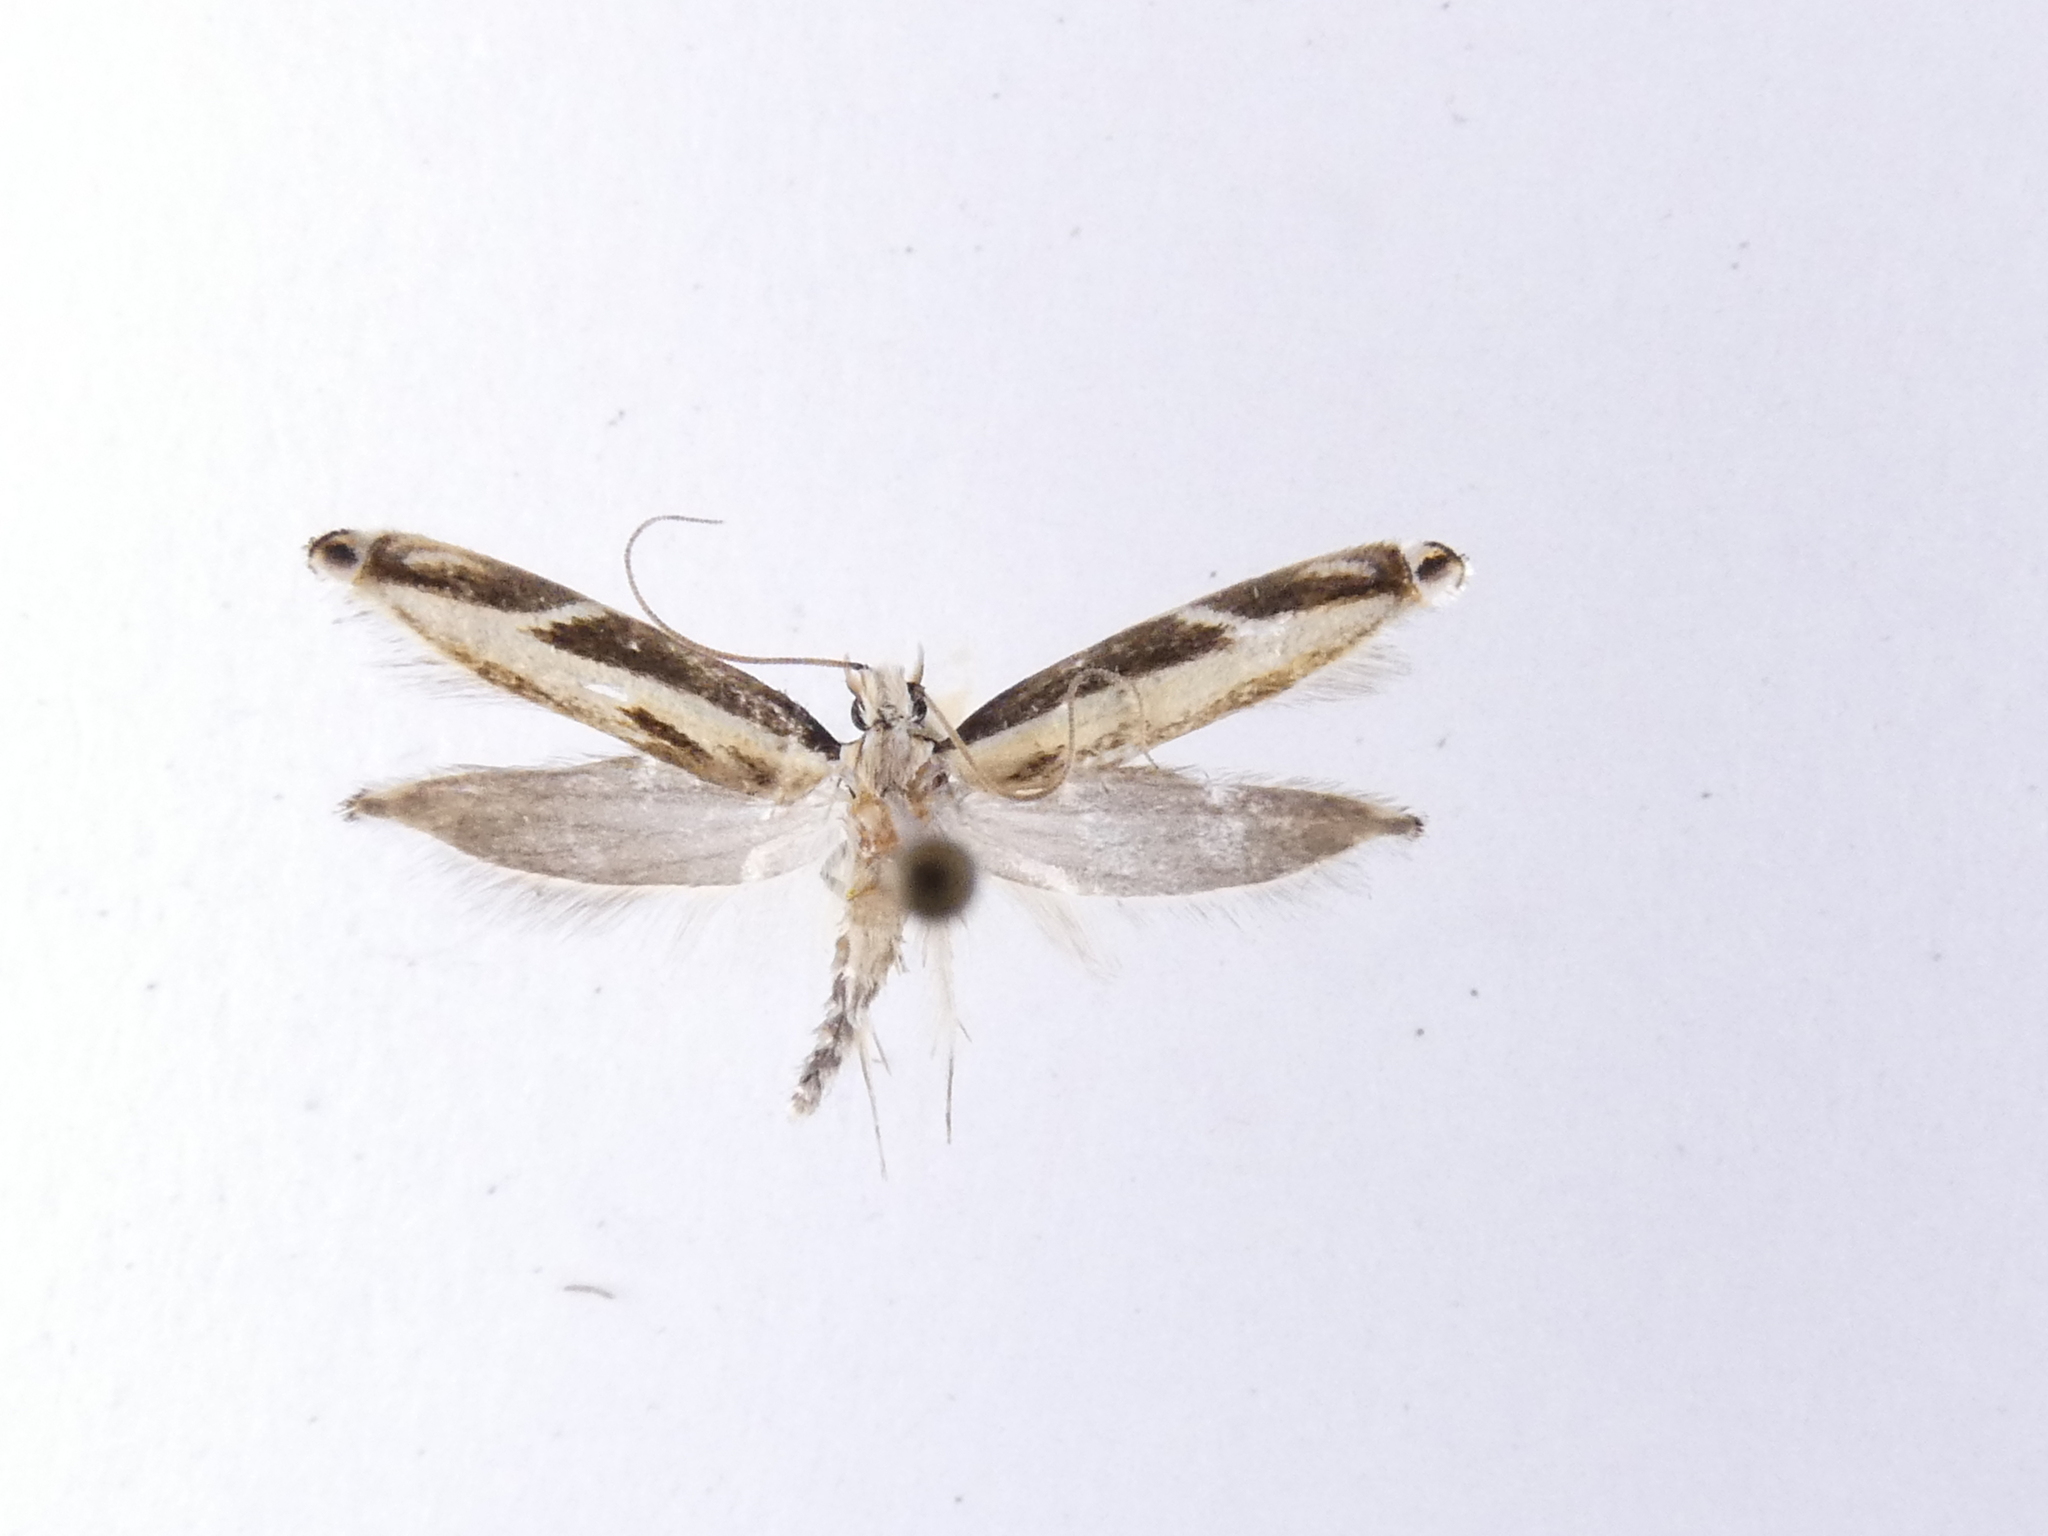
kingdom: Animalia
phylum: Arthropoda
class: Insecta
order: Lepidoptera
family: Tineidae
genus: Erechthias
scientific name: Erechthias terminella
